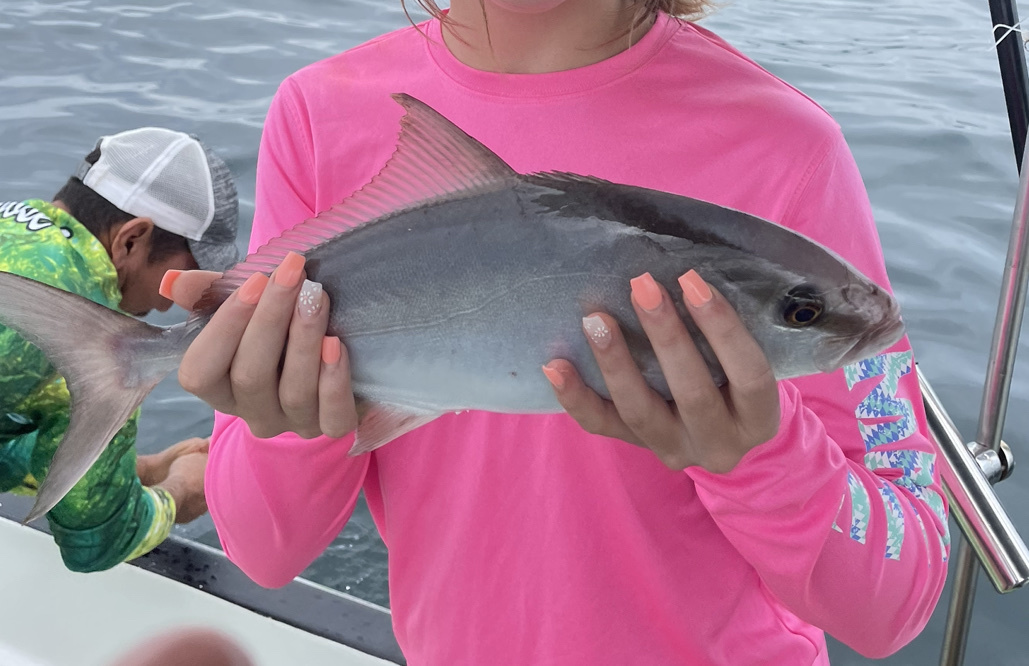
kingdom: Animalia
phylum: Chordata
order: Perciformes
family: Carangidae
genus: Seriola
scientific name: Seriola rivoliana
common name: Almaco jack
